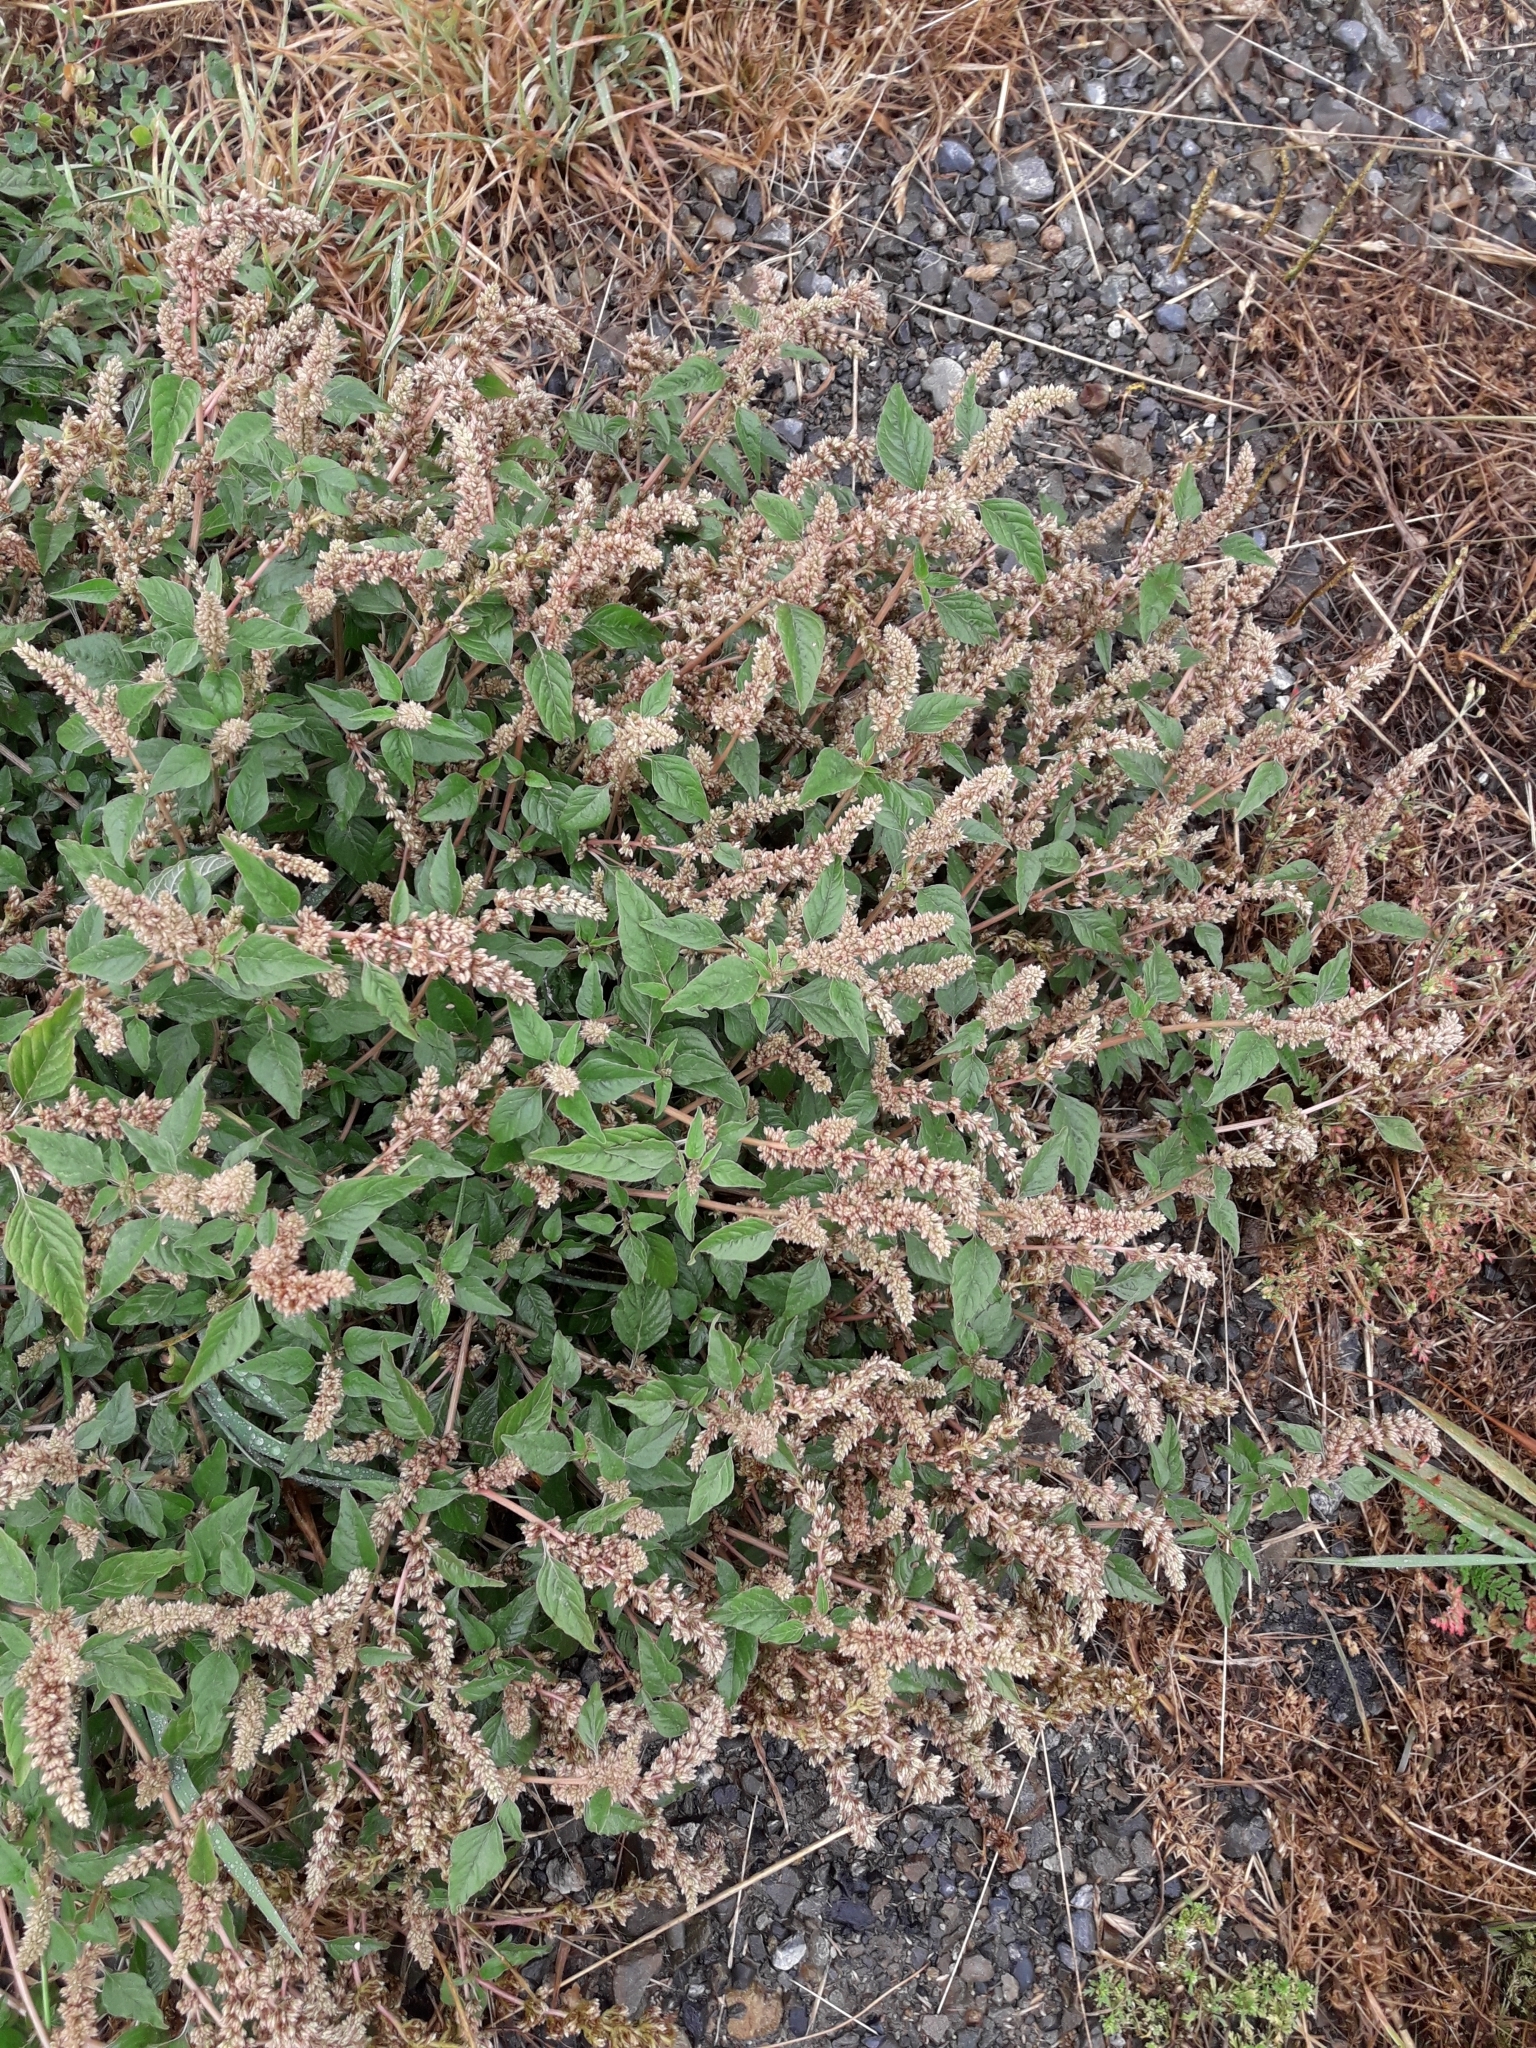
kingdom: Plantae
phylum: Tracheophyta
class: Magnoliopsida
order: Caryophyllales
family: Amaranthaceae
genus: Amaranthus
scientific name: Amaranthus deflexus
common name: Perennial pigweed
